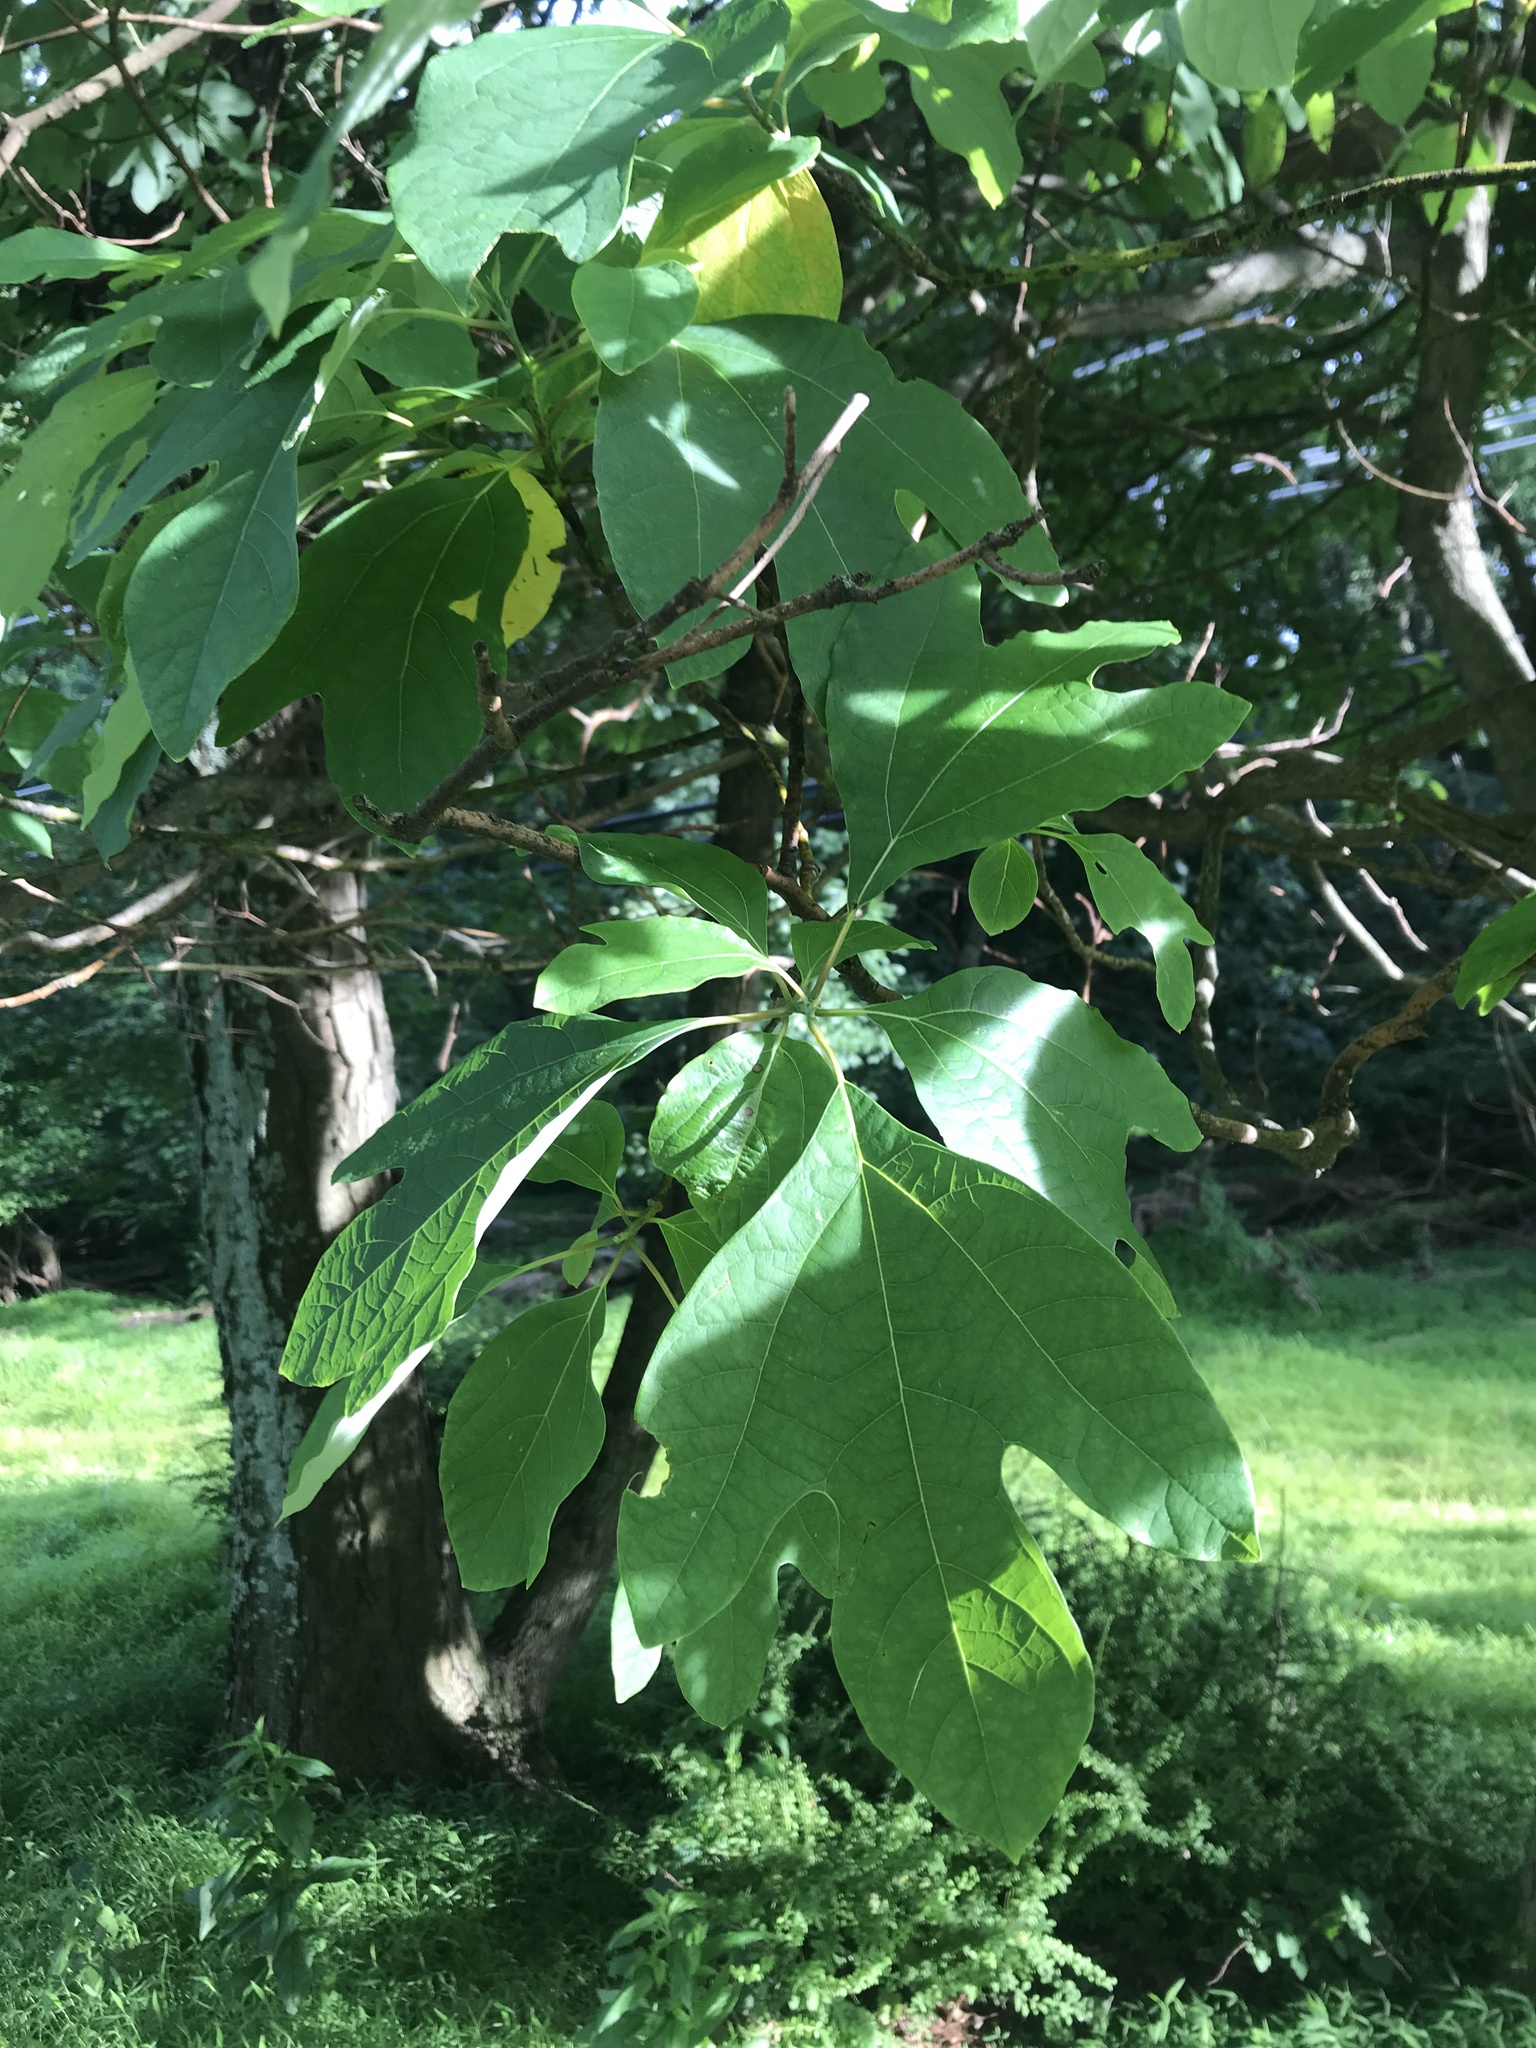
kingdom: Plantae
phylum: Tracheophyta
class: Magnoliopsida
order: Laurales
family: Lauraceae
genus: Sassafras
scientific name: Sassafras albidum
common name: Sassafras
